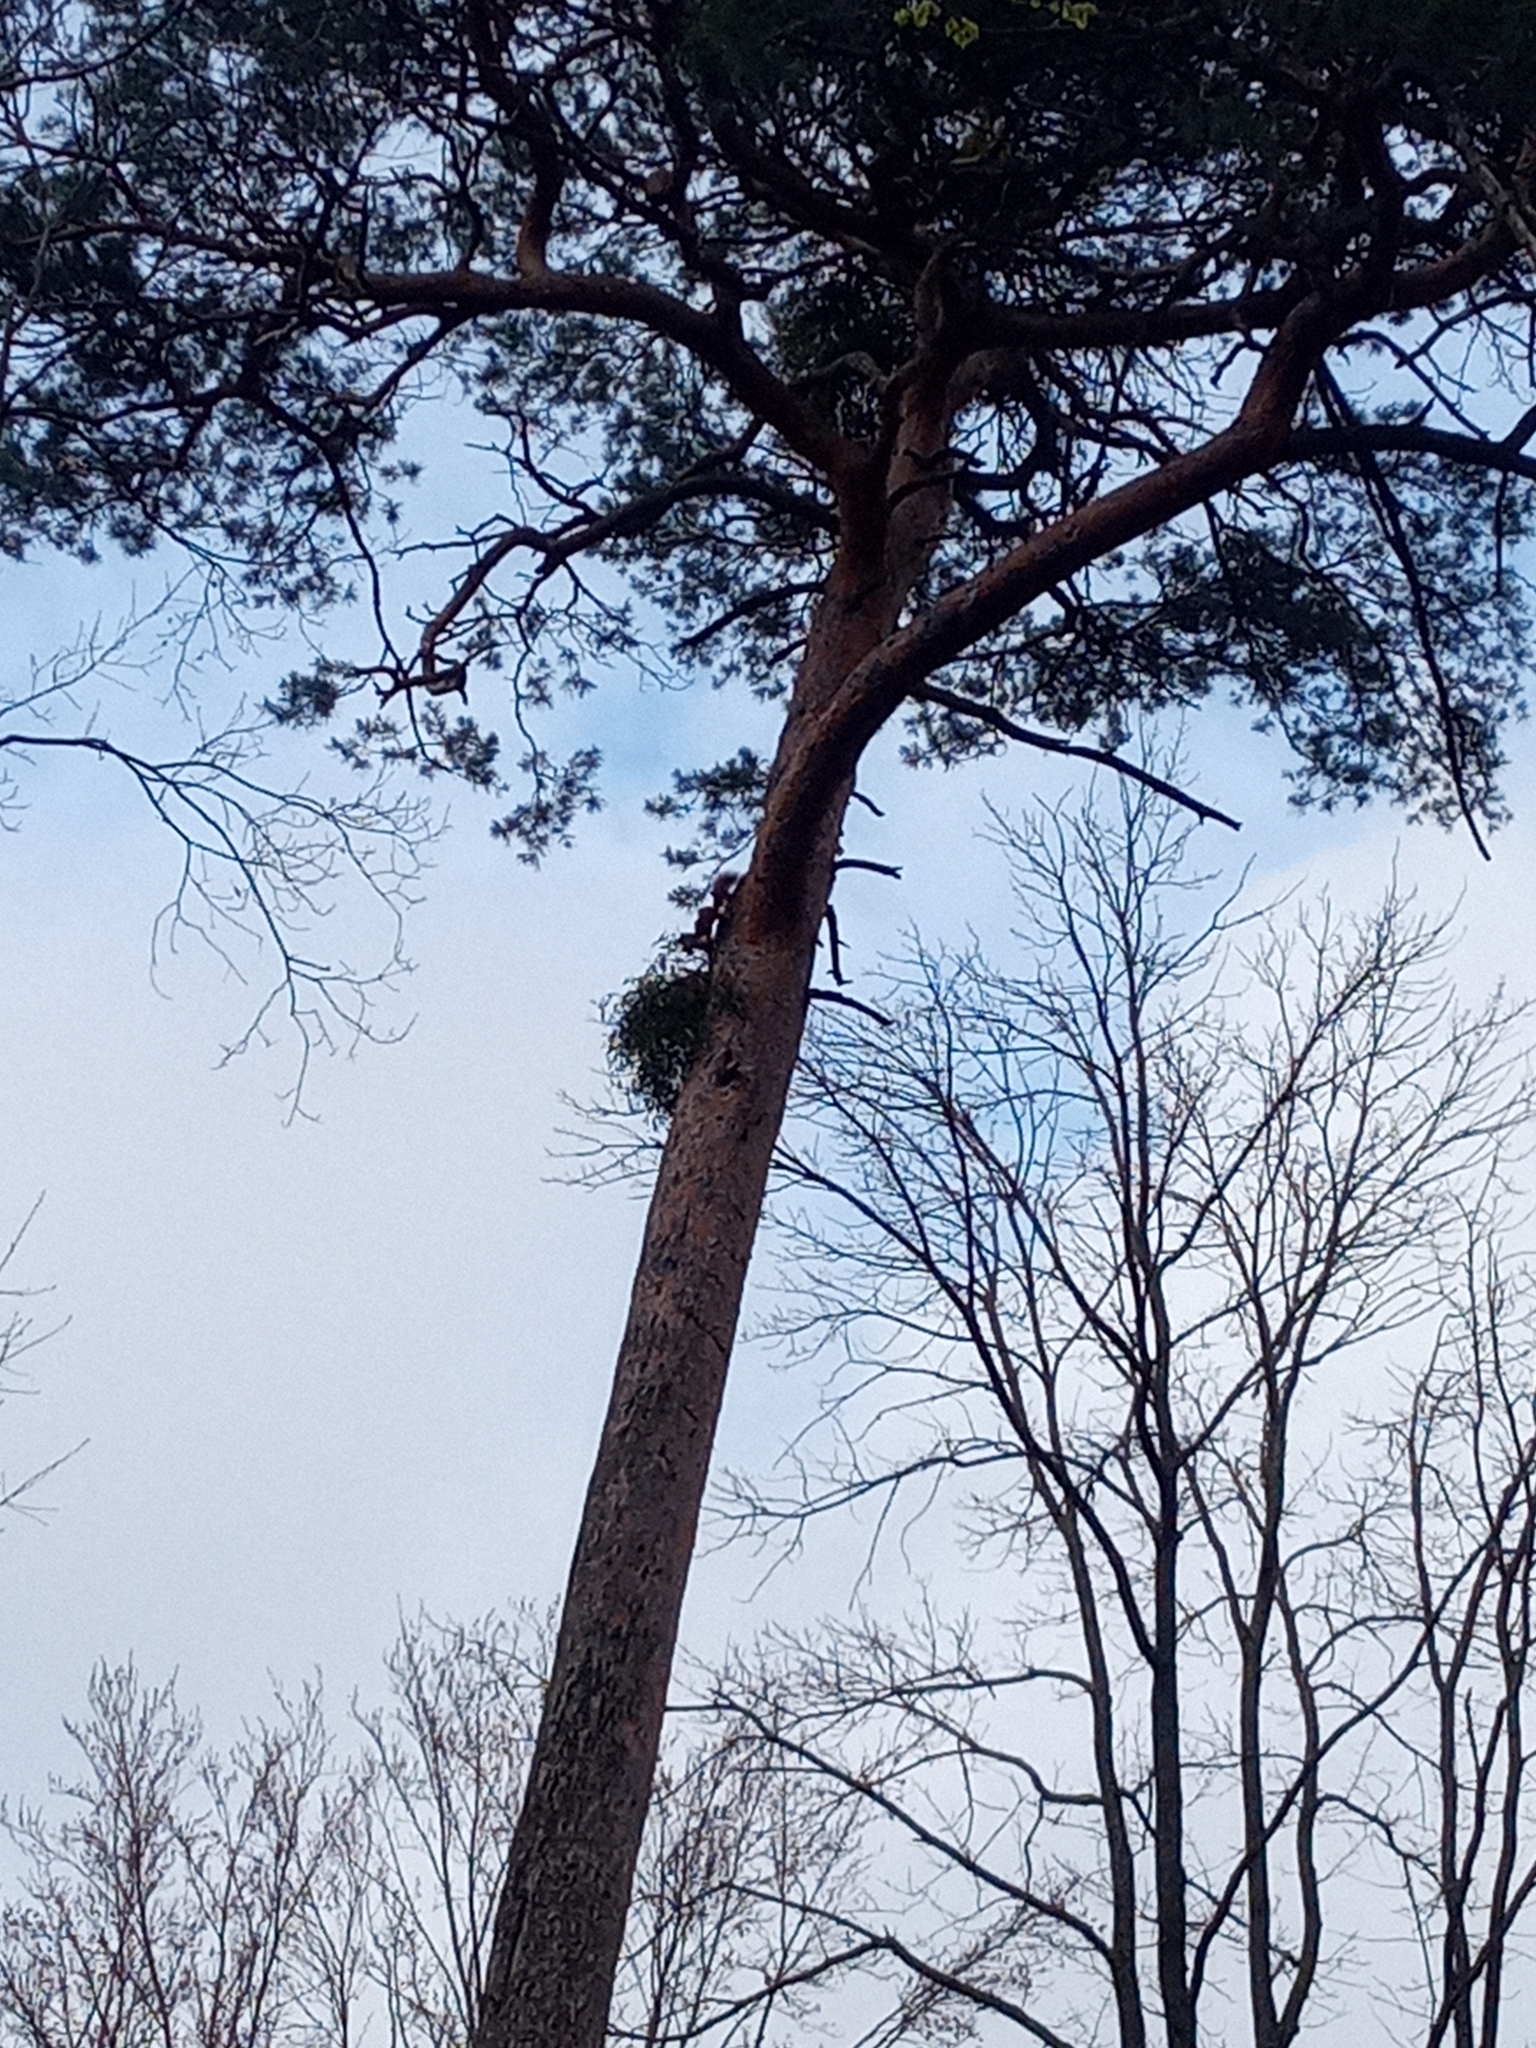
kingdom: Animalia
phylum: Chordata
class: Mammalia
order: Rodentia
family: Sciuridae
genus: Sciurus
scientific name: Sciurus vulgaris
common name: Eurasian red squirrel
